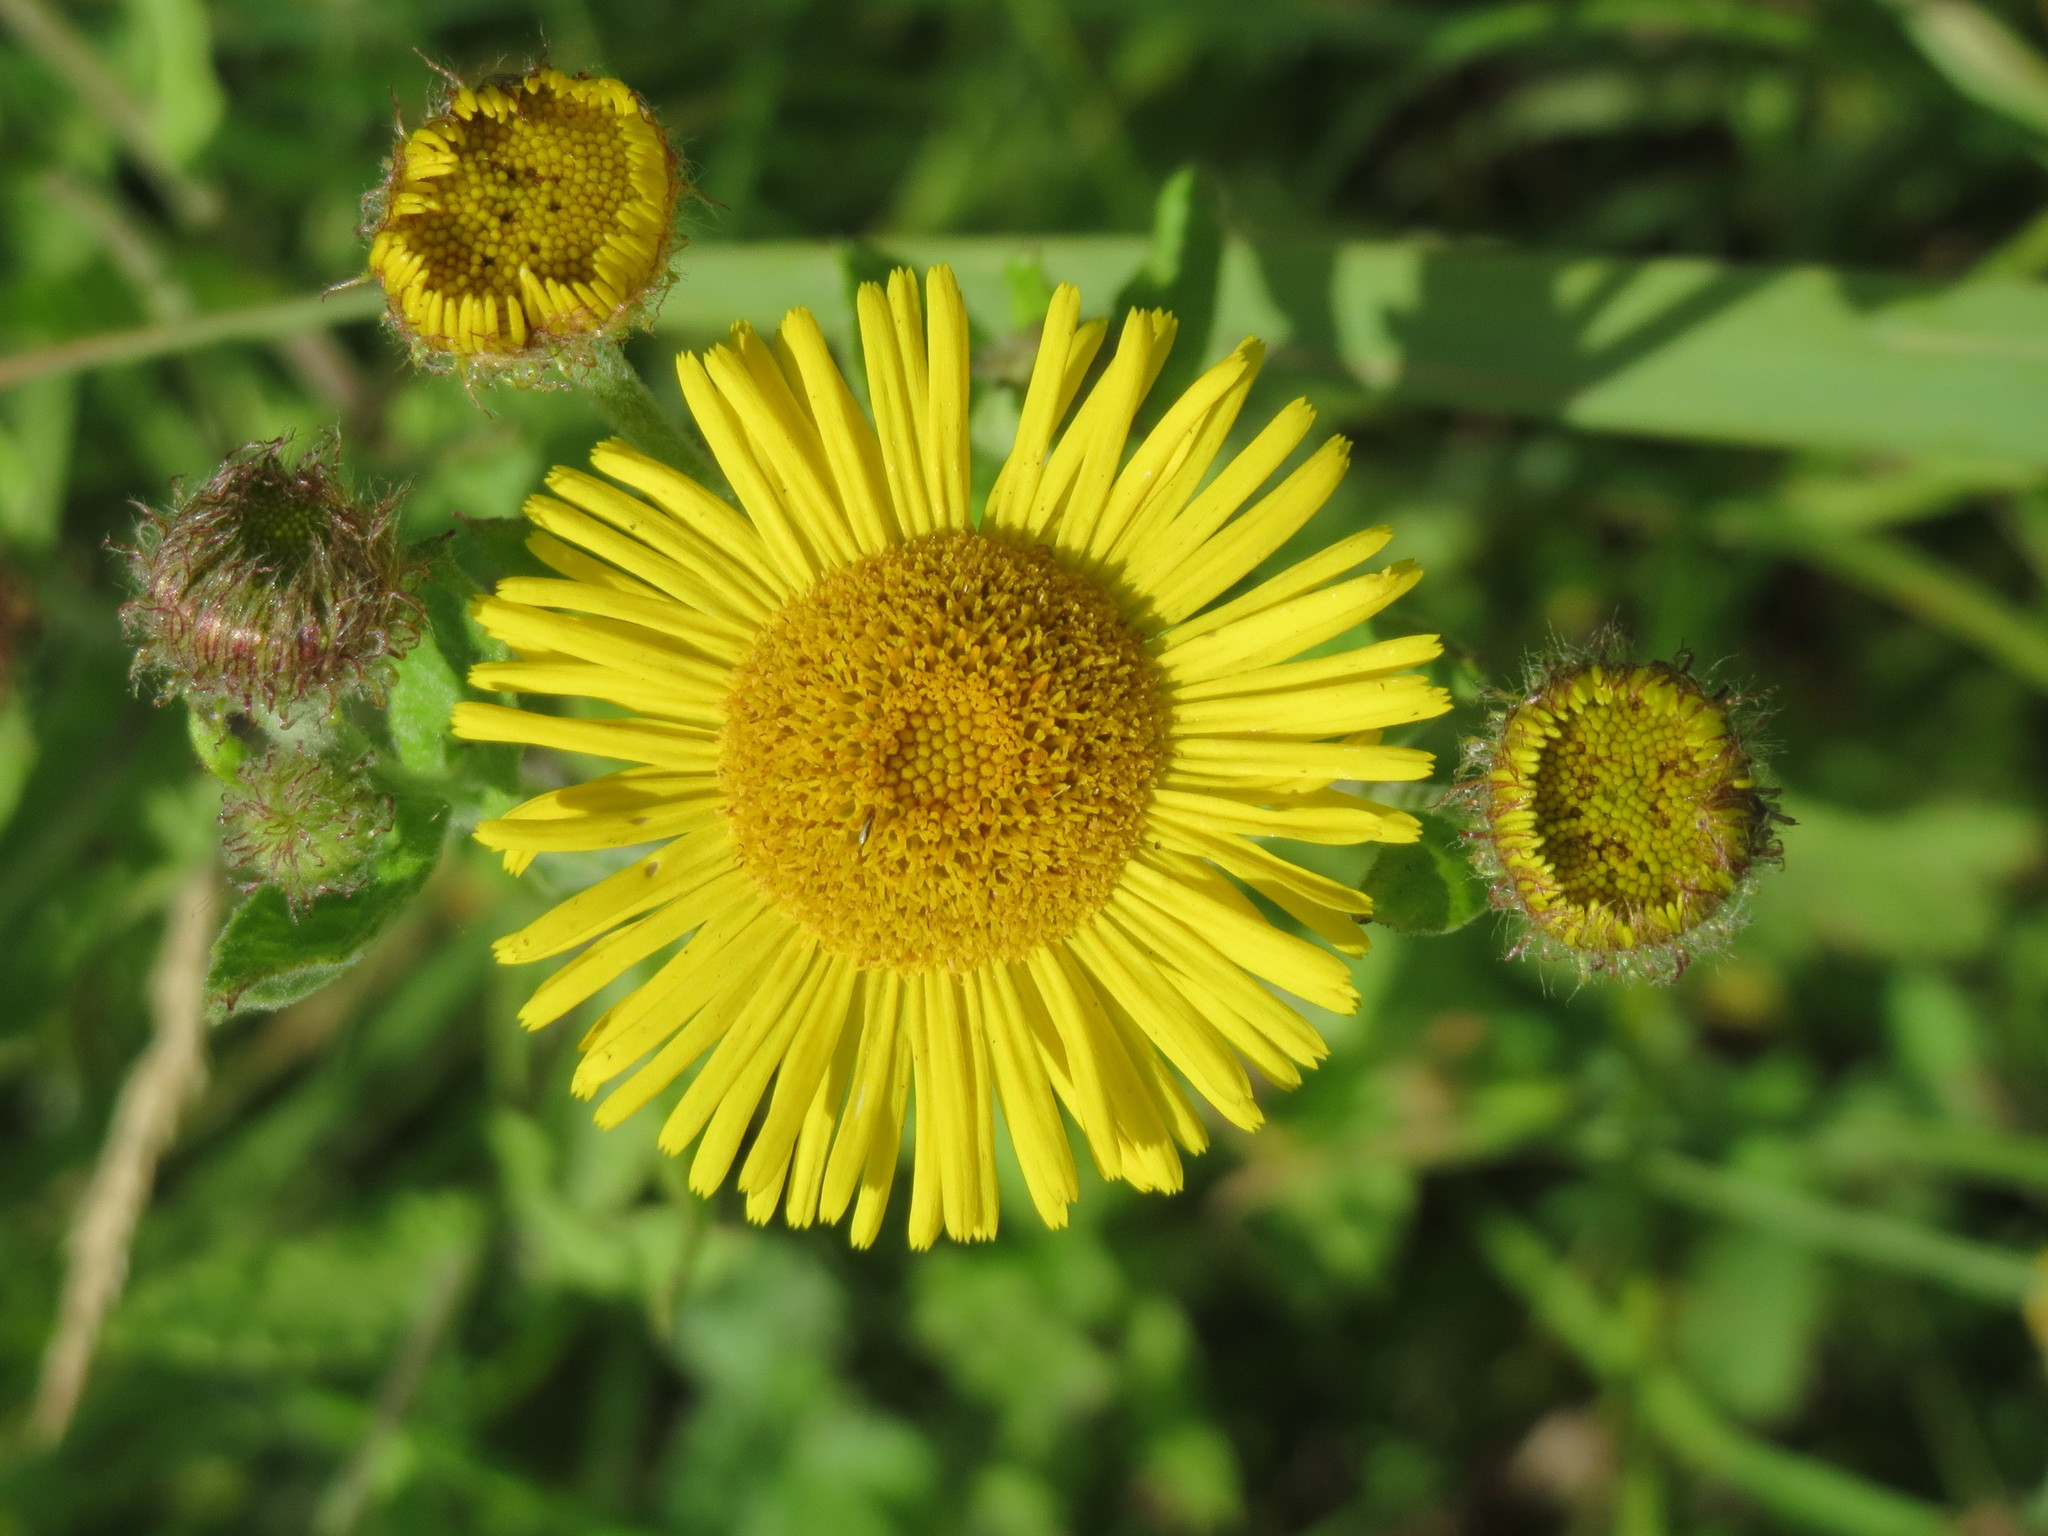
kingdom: Plantae
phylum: Tracheophyta
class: Magnoliopsida
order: Asterales
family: Asteraceae
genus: Pulicaria
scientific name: Pulicaria dysenterica
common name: Common fleabane
